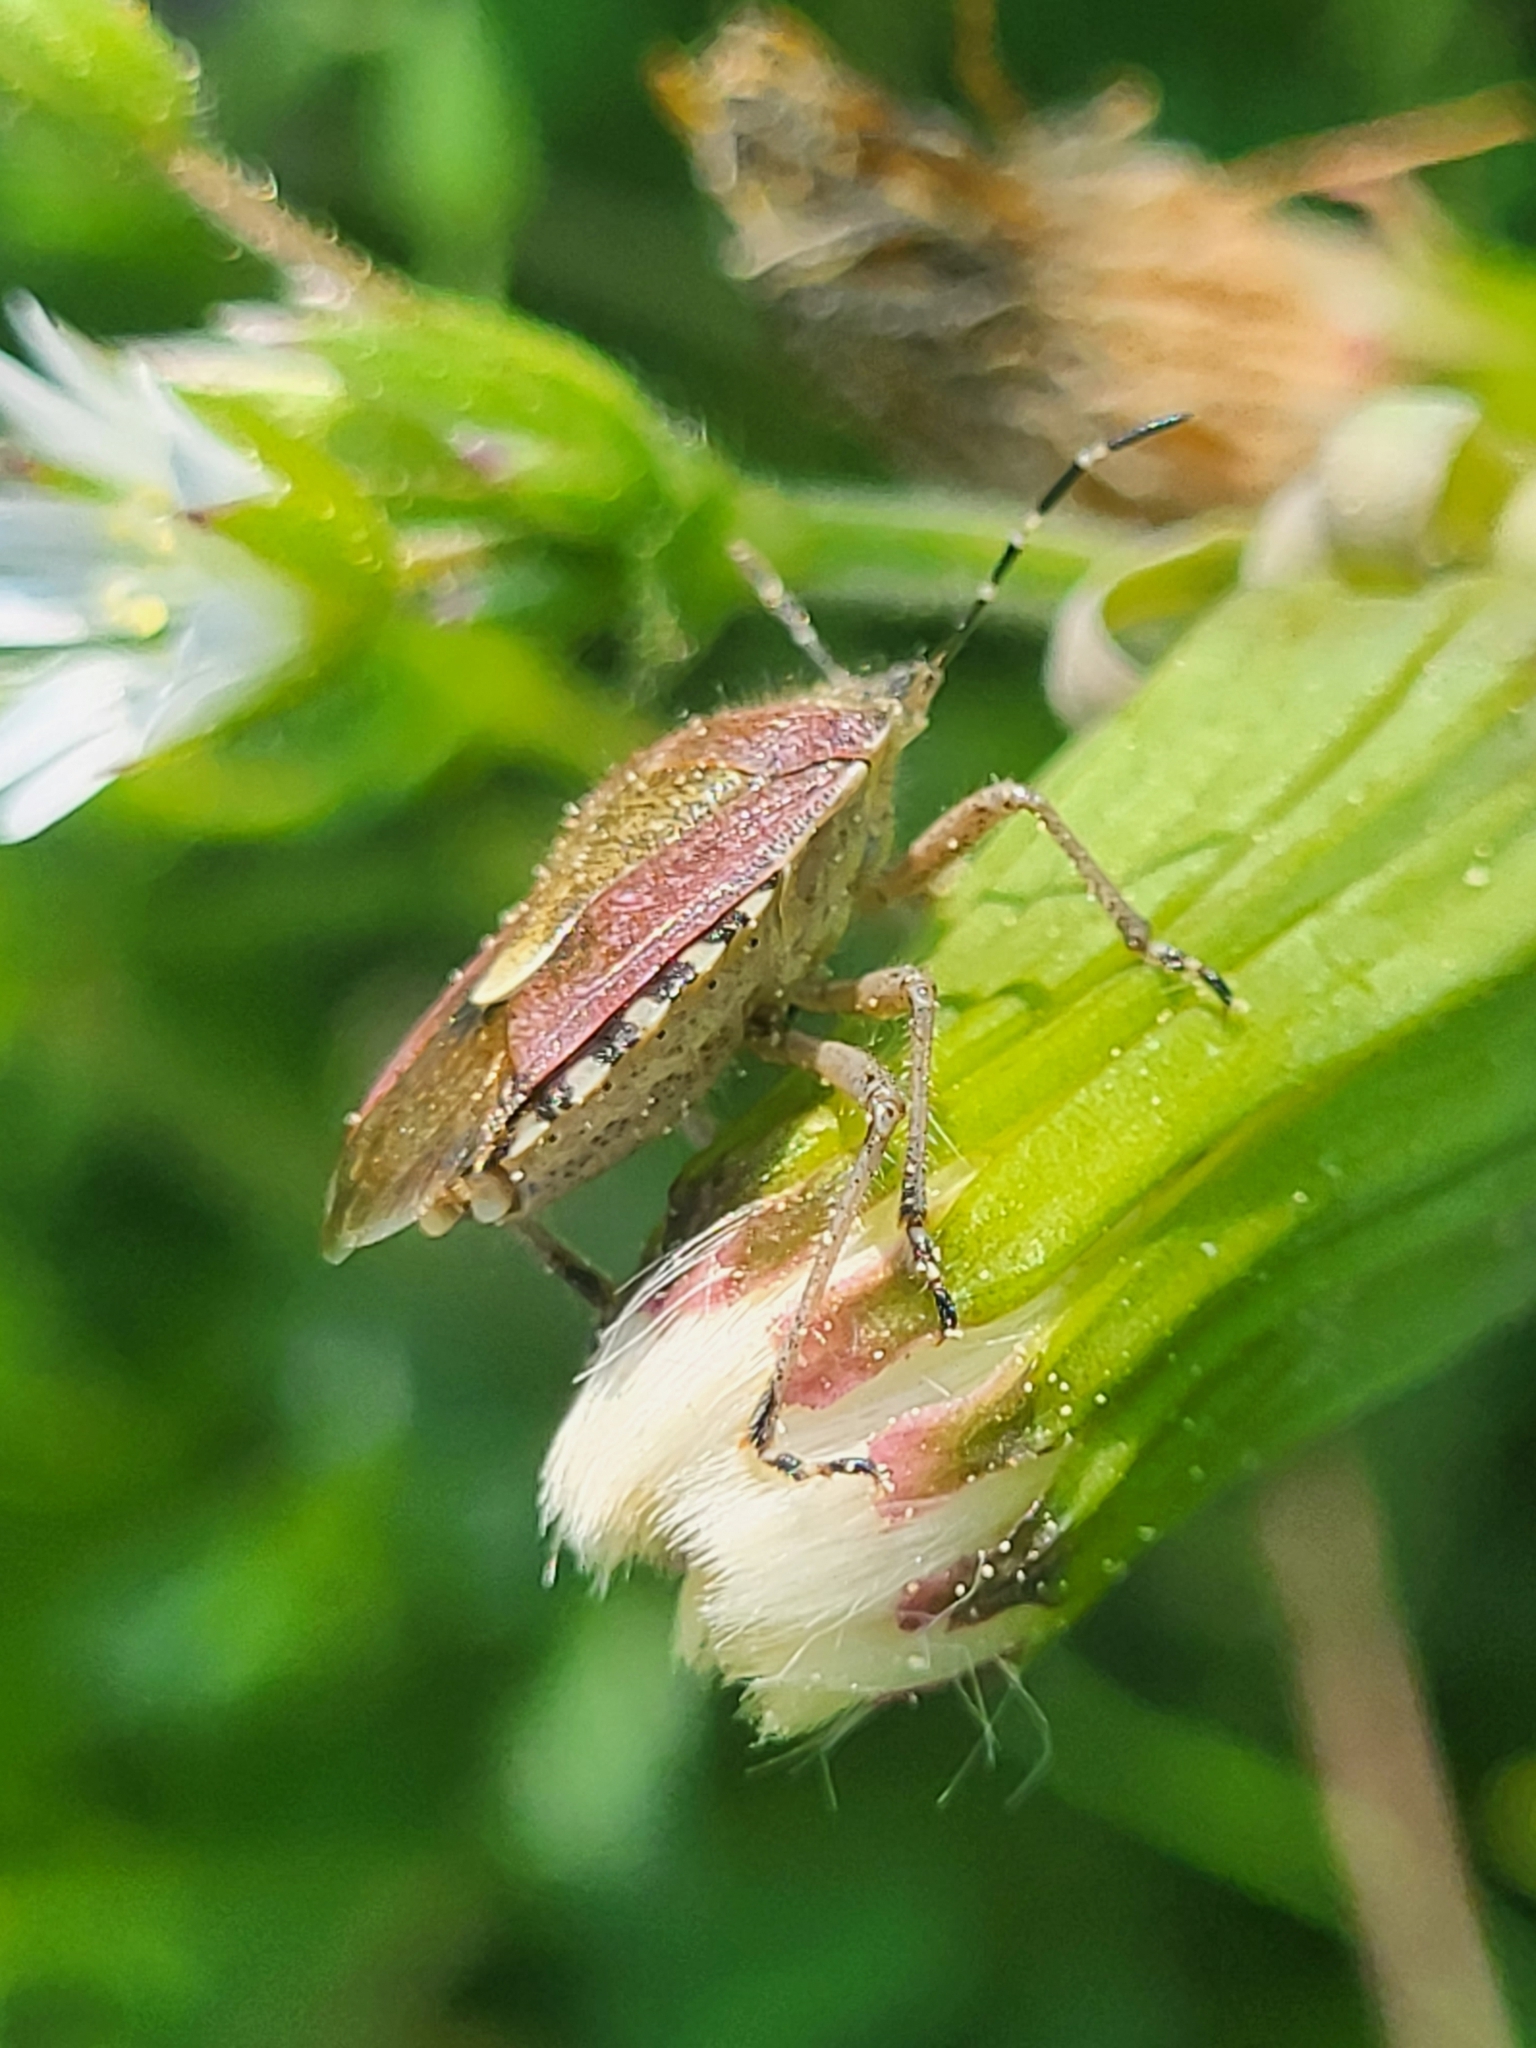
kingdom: Animalia
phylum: Arthropoda
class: Insecta
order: Hemiptera
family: Pentatomidae
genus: Dolycoris
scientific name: Dolycoris baccarum
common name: Sloe bug
